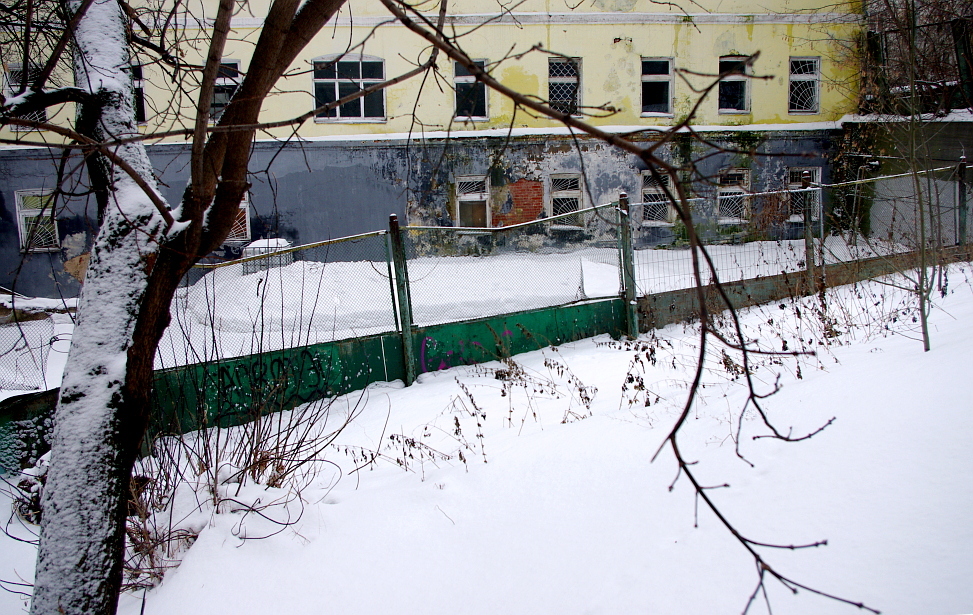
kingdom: Plantae
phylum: Tracheophyta
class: Magnoliopsida
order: Rosales
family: Urticaceae
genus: Urtica
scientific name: Urtica dioica
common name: Common nettle
